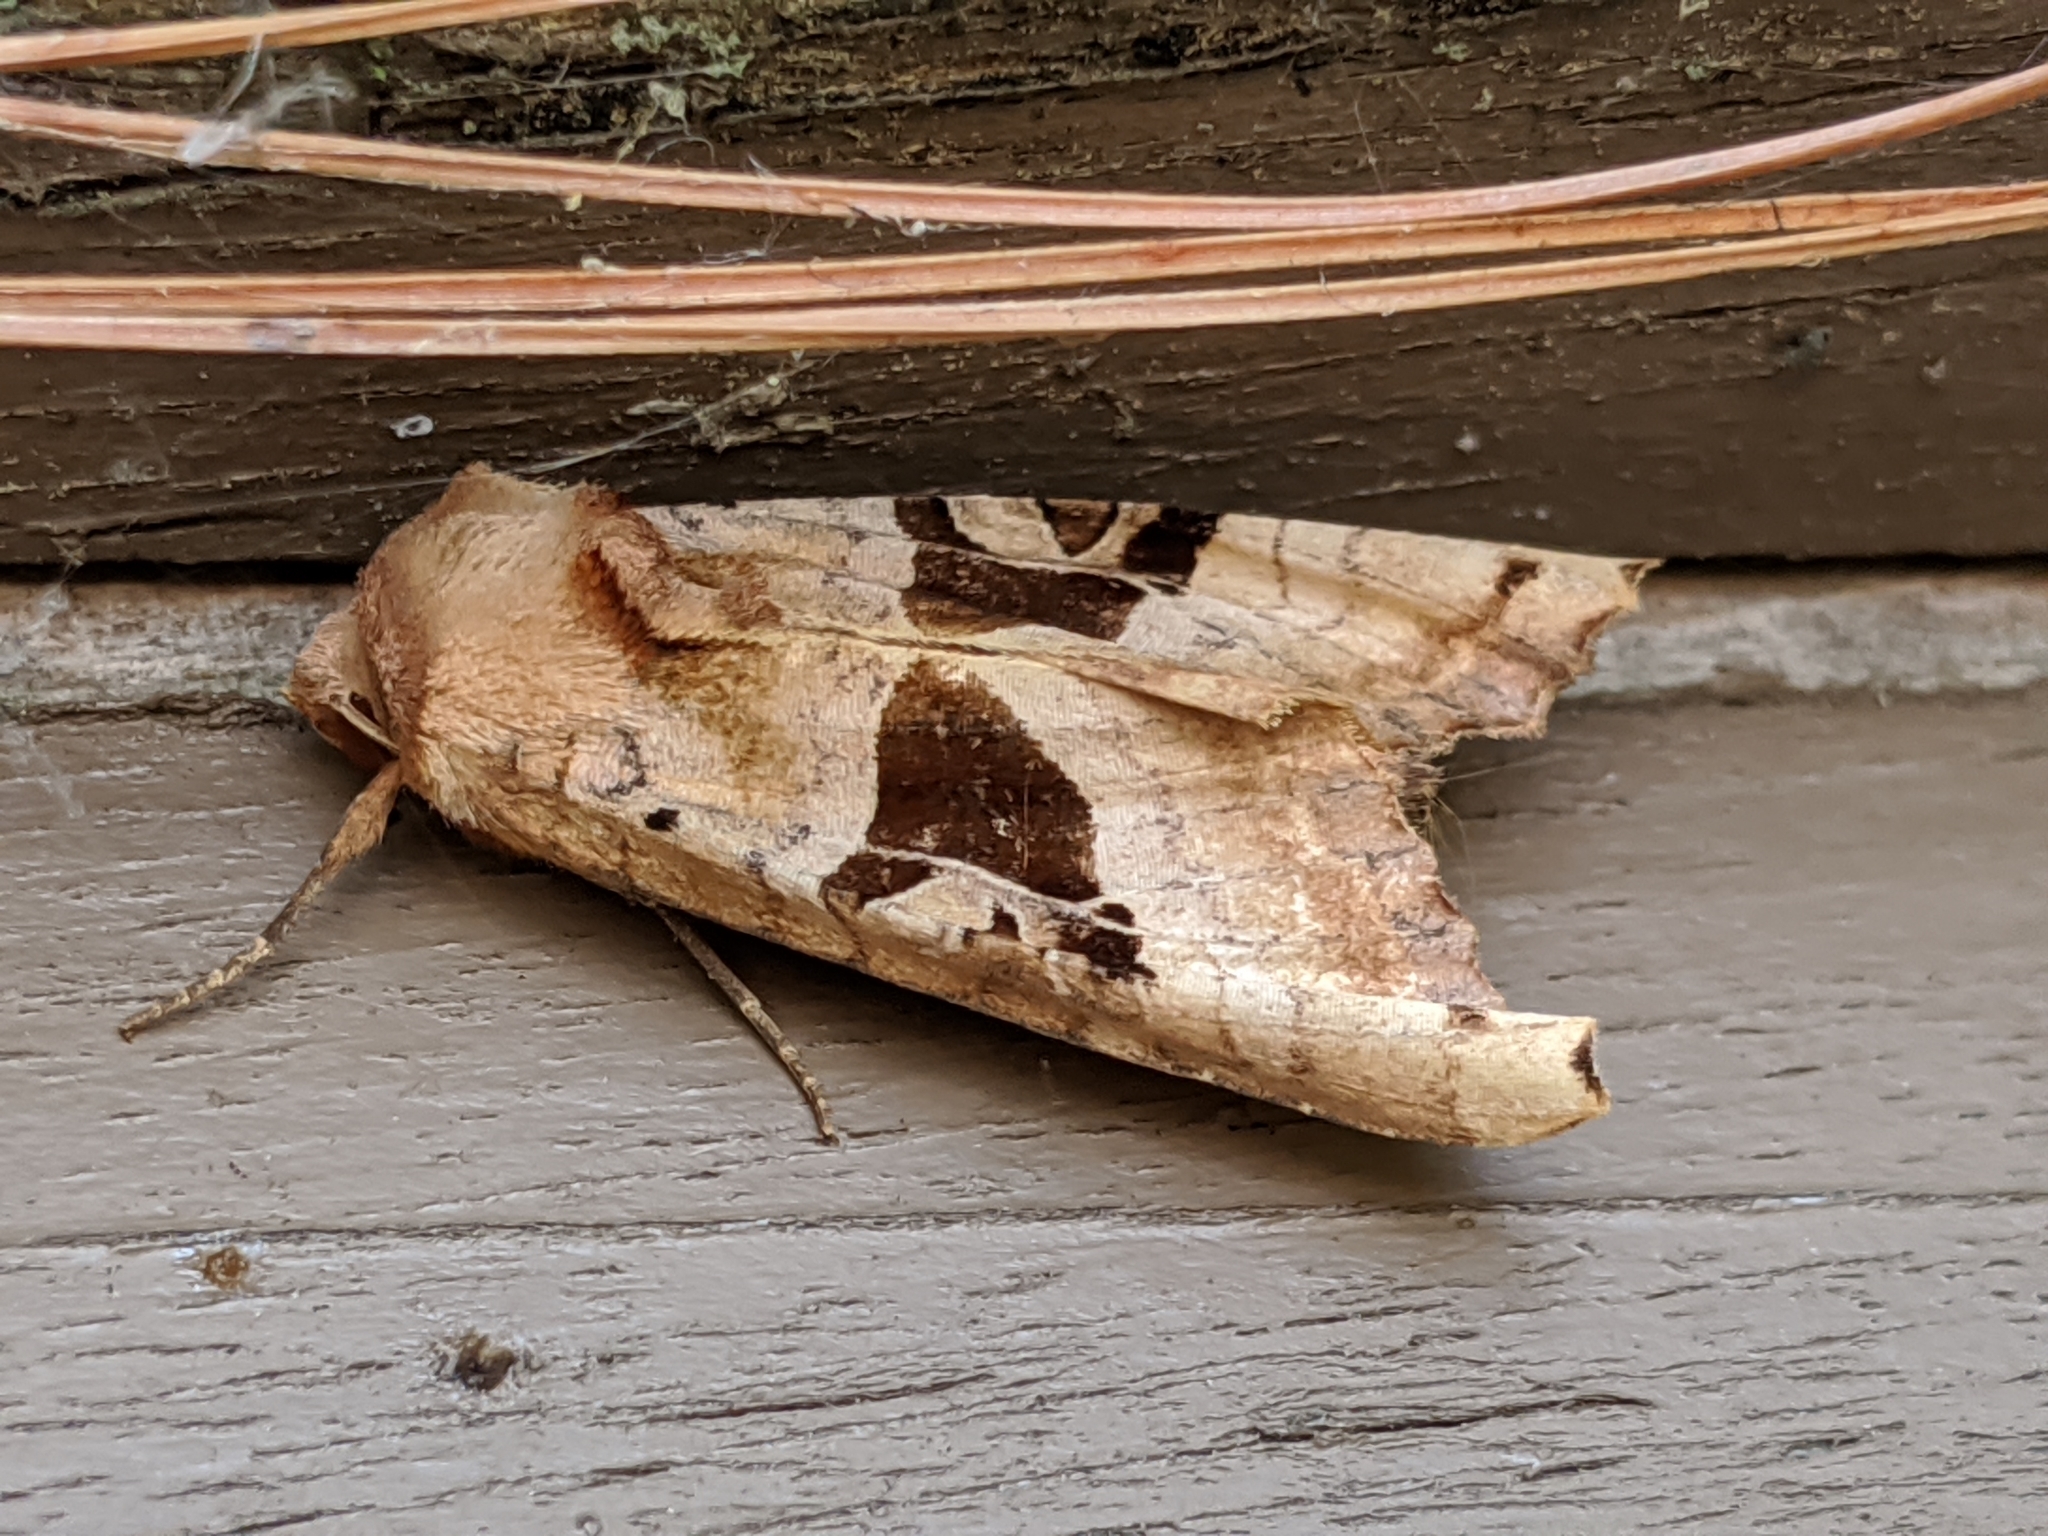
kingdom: Animalia
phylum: Arthropoda
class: Insecta
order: Lepidoptera
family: Noctuidae
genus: Phlogophora
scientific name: Phlogophora periculosa
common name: Brown angle shades
